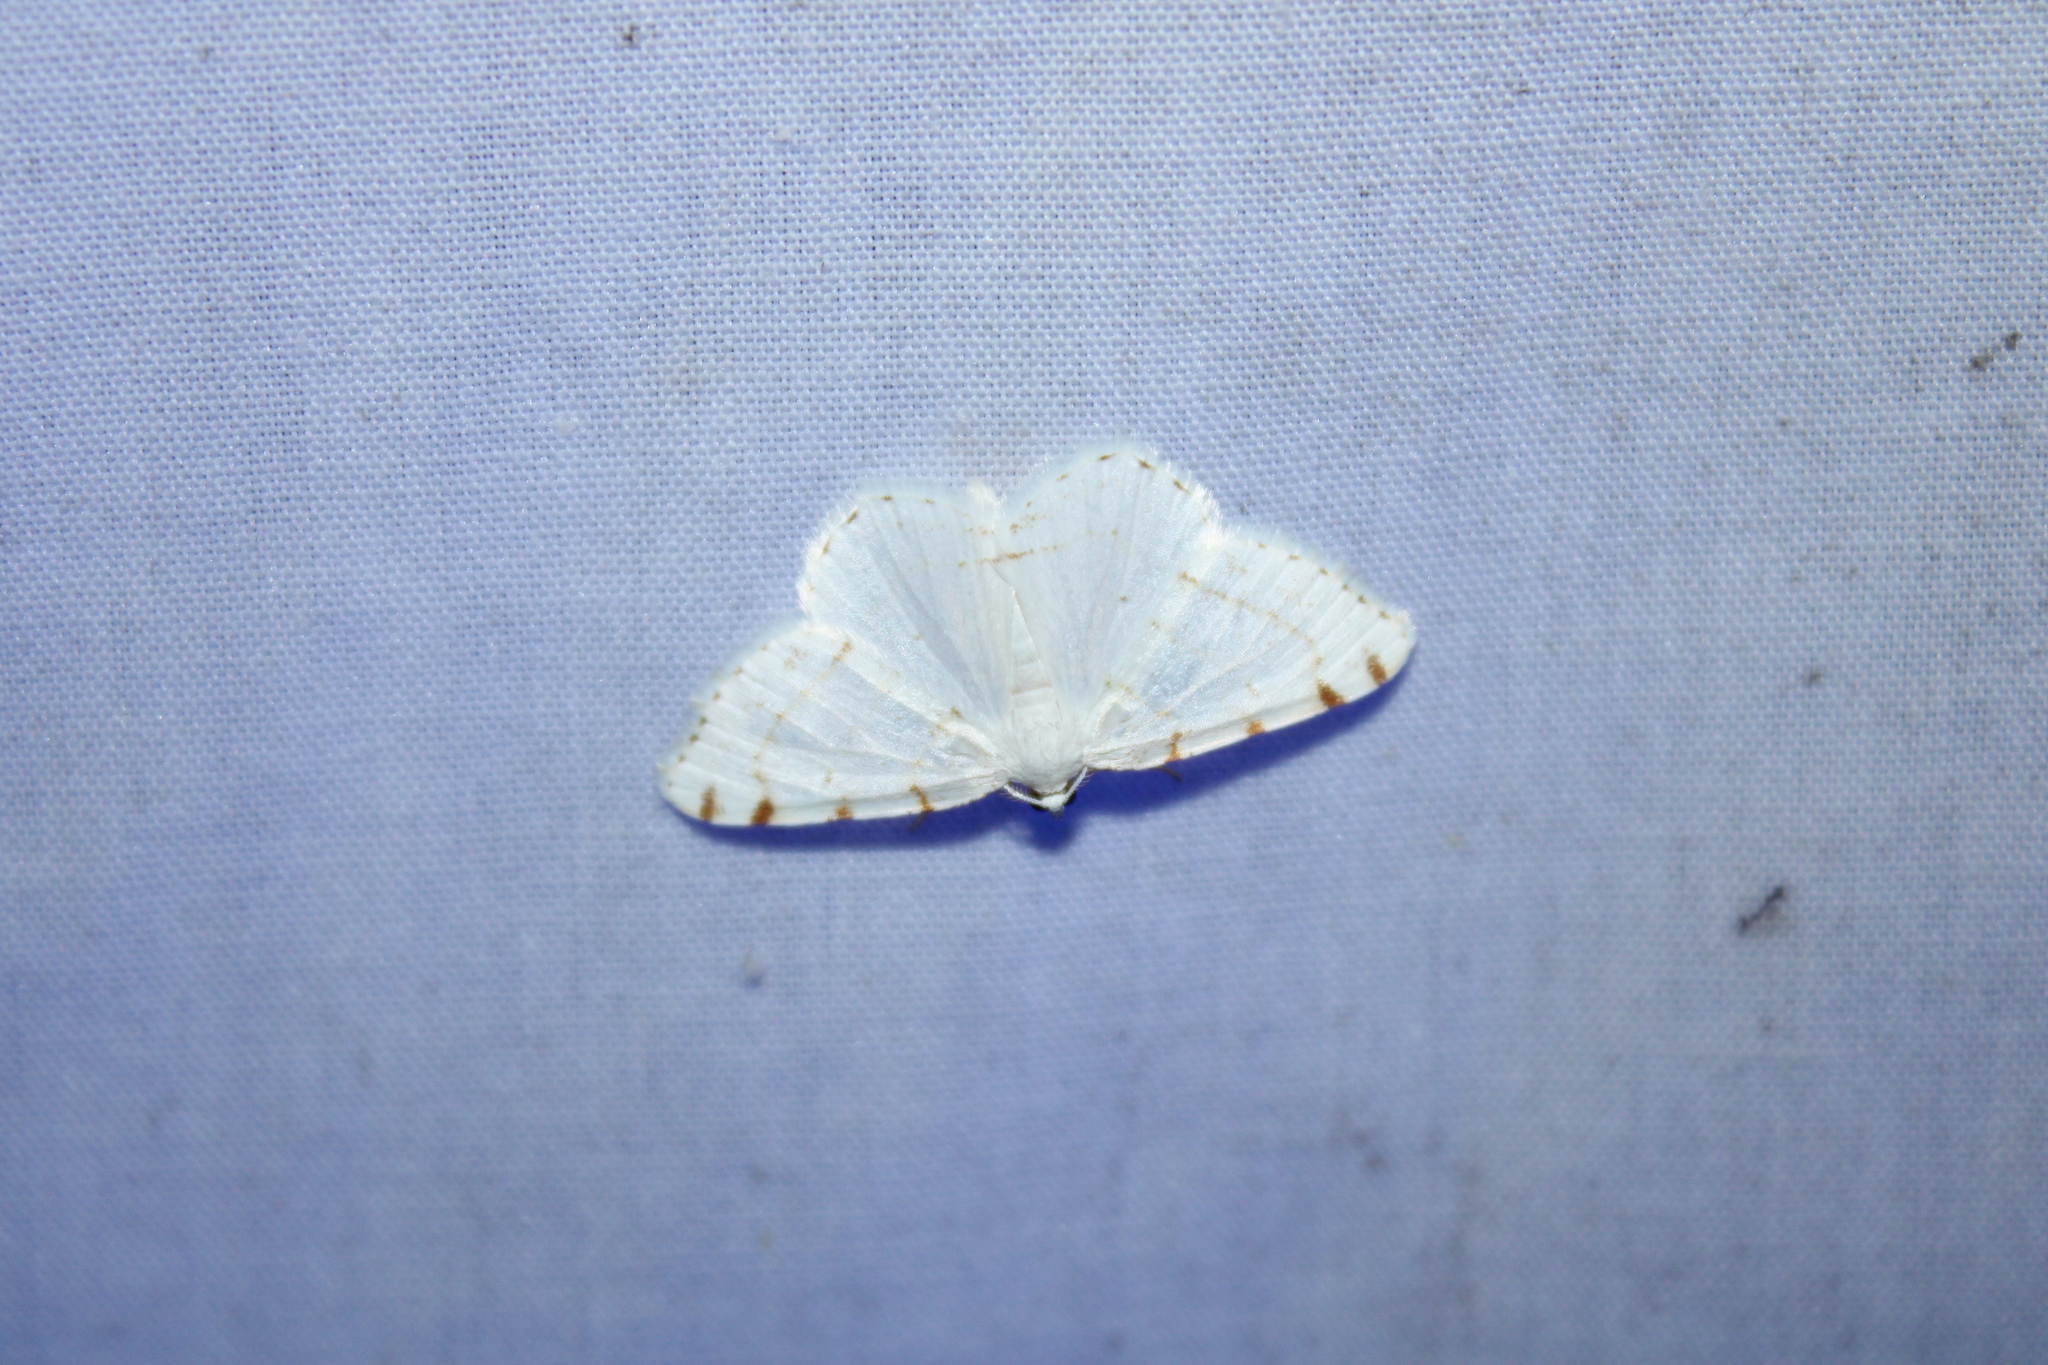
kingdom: Animalia
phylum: Arthropoda
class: Insecta
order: Lepidoptera
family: Geometridae
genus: Macaria
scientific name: Macaria pustularia
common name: Lesser maple spanworm moth
